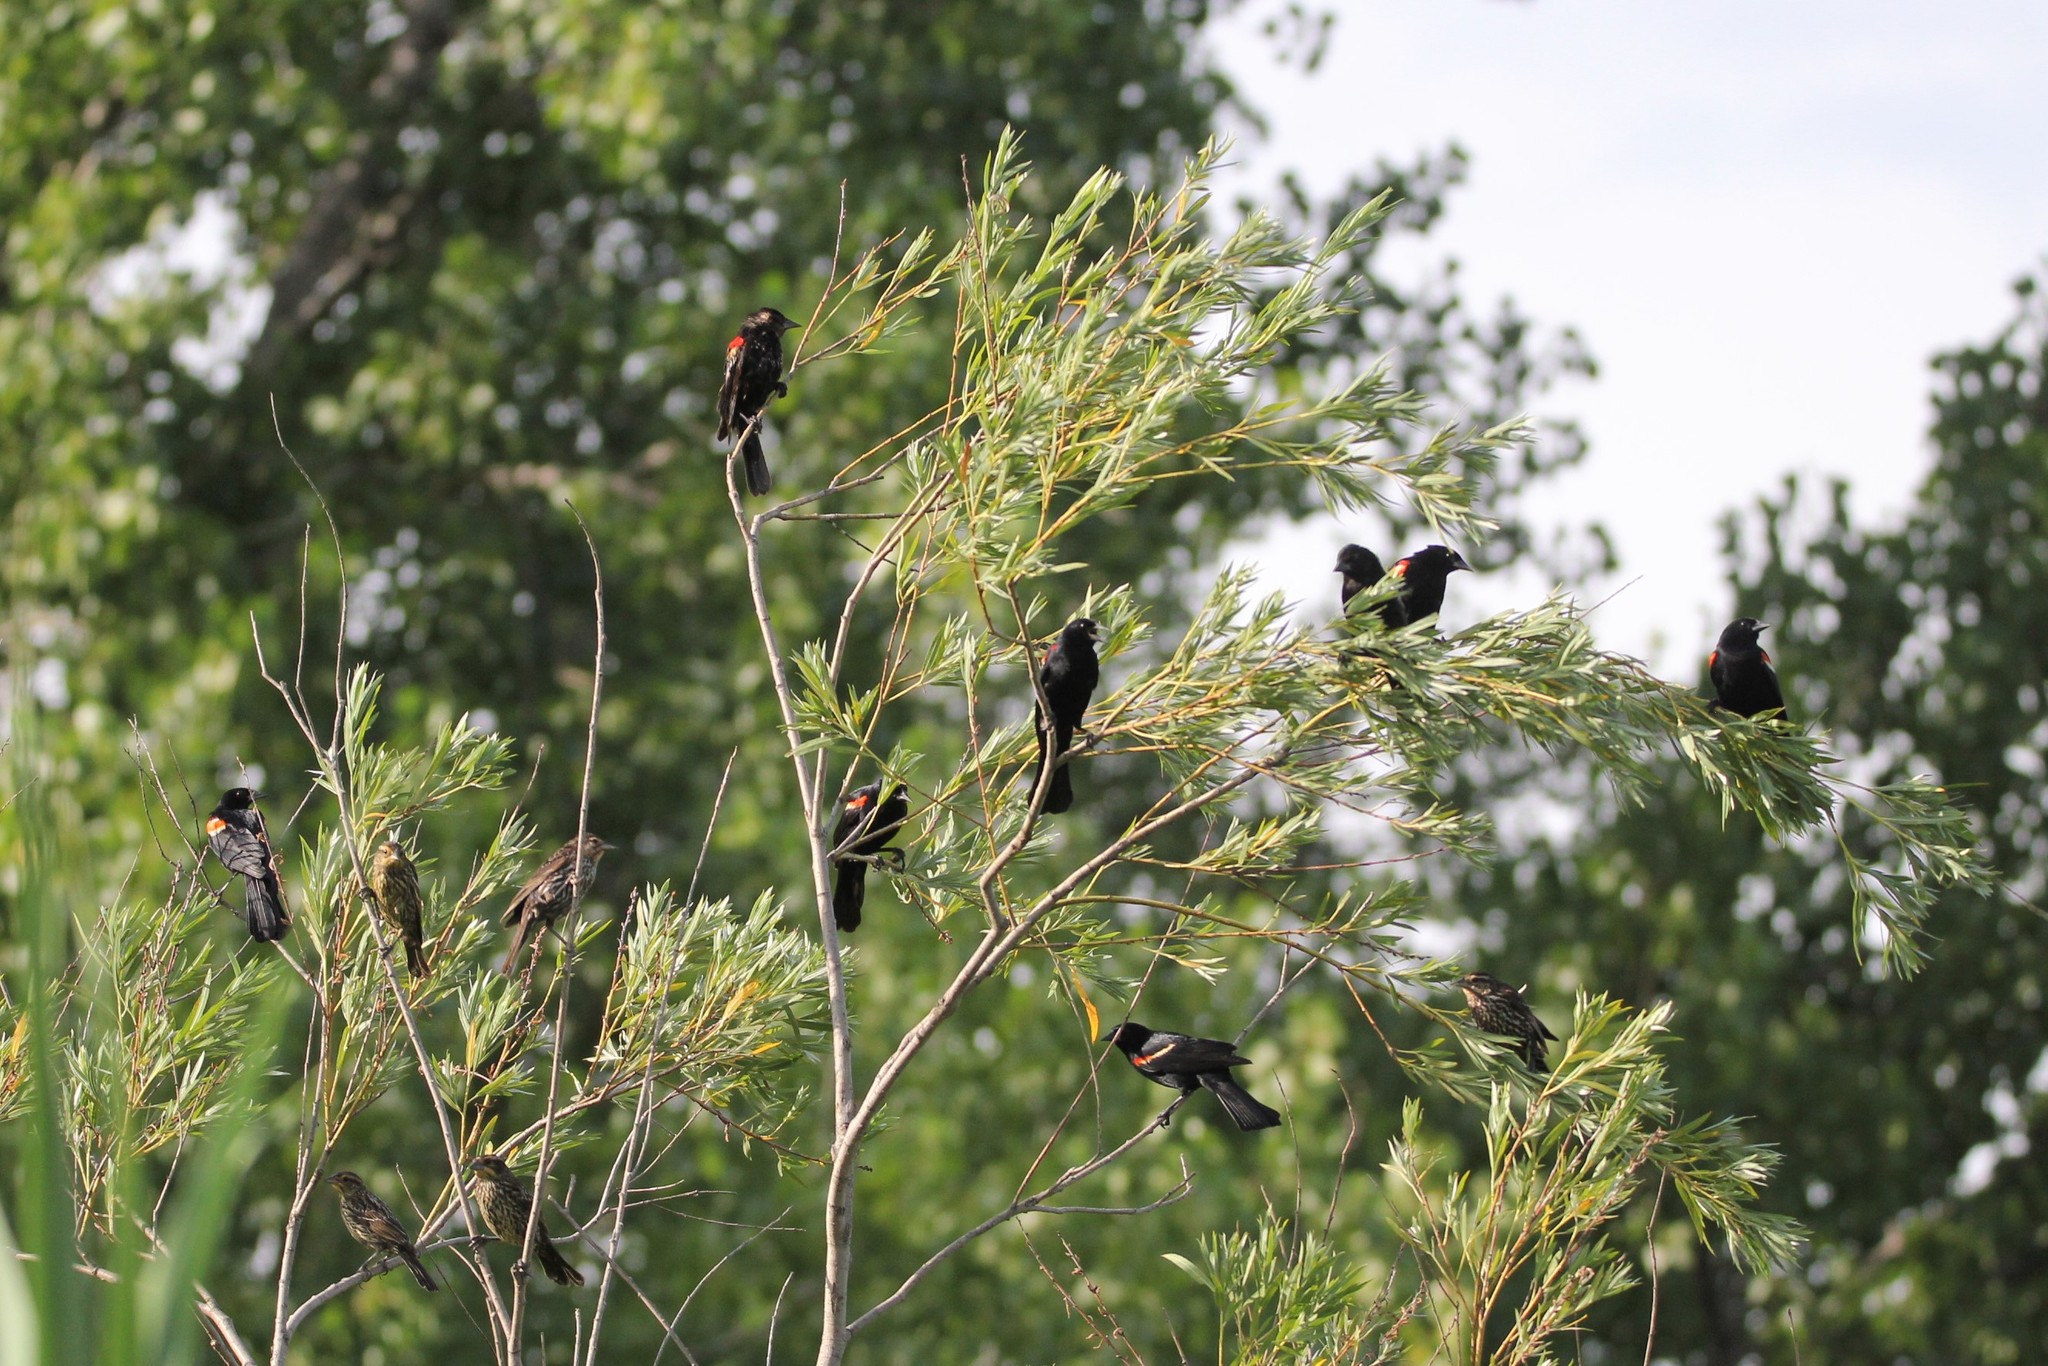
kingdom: Animalia
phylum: Chordata
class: Aves
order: Passeriformes
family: Icteridae
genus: Agelaius
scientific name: Agelaius phoeniceus
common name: Red-winged blackbird
